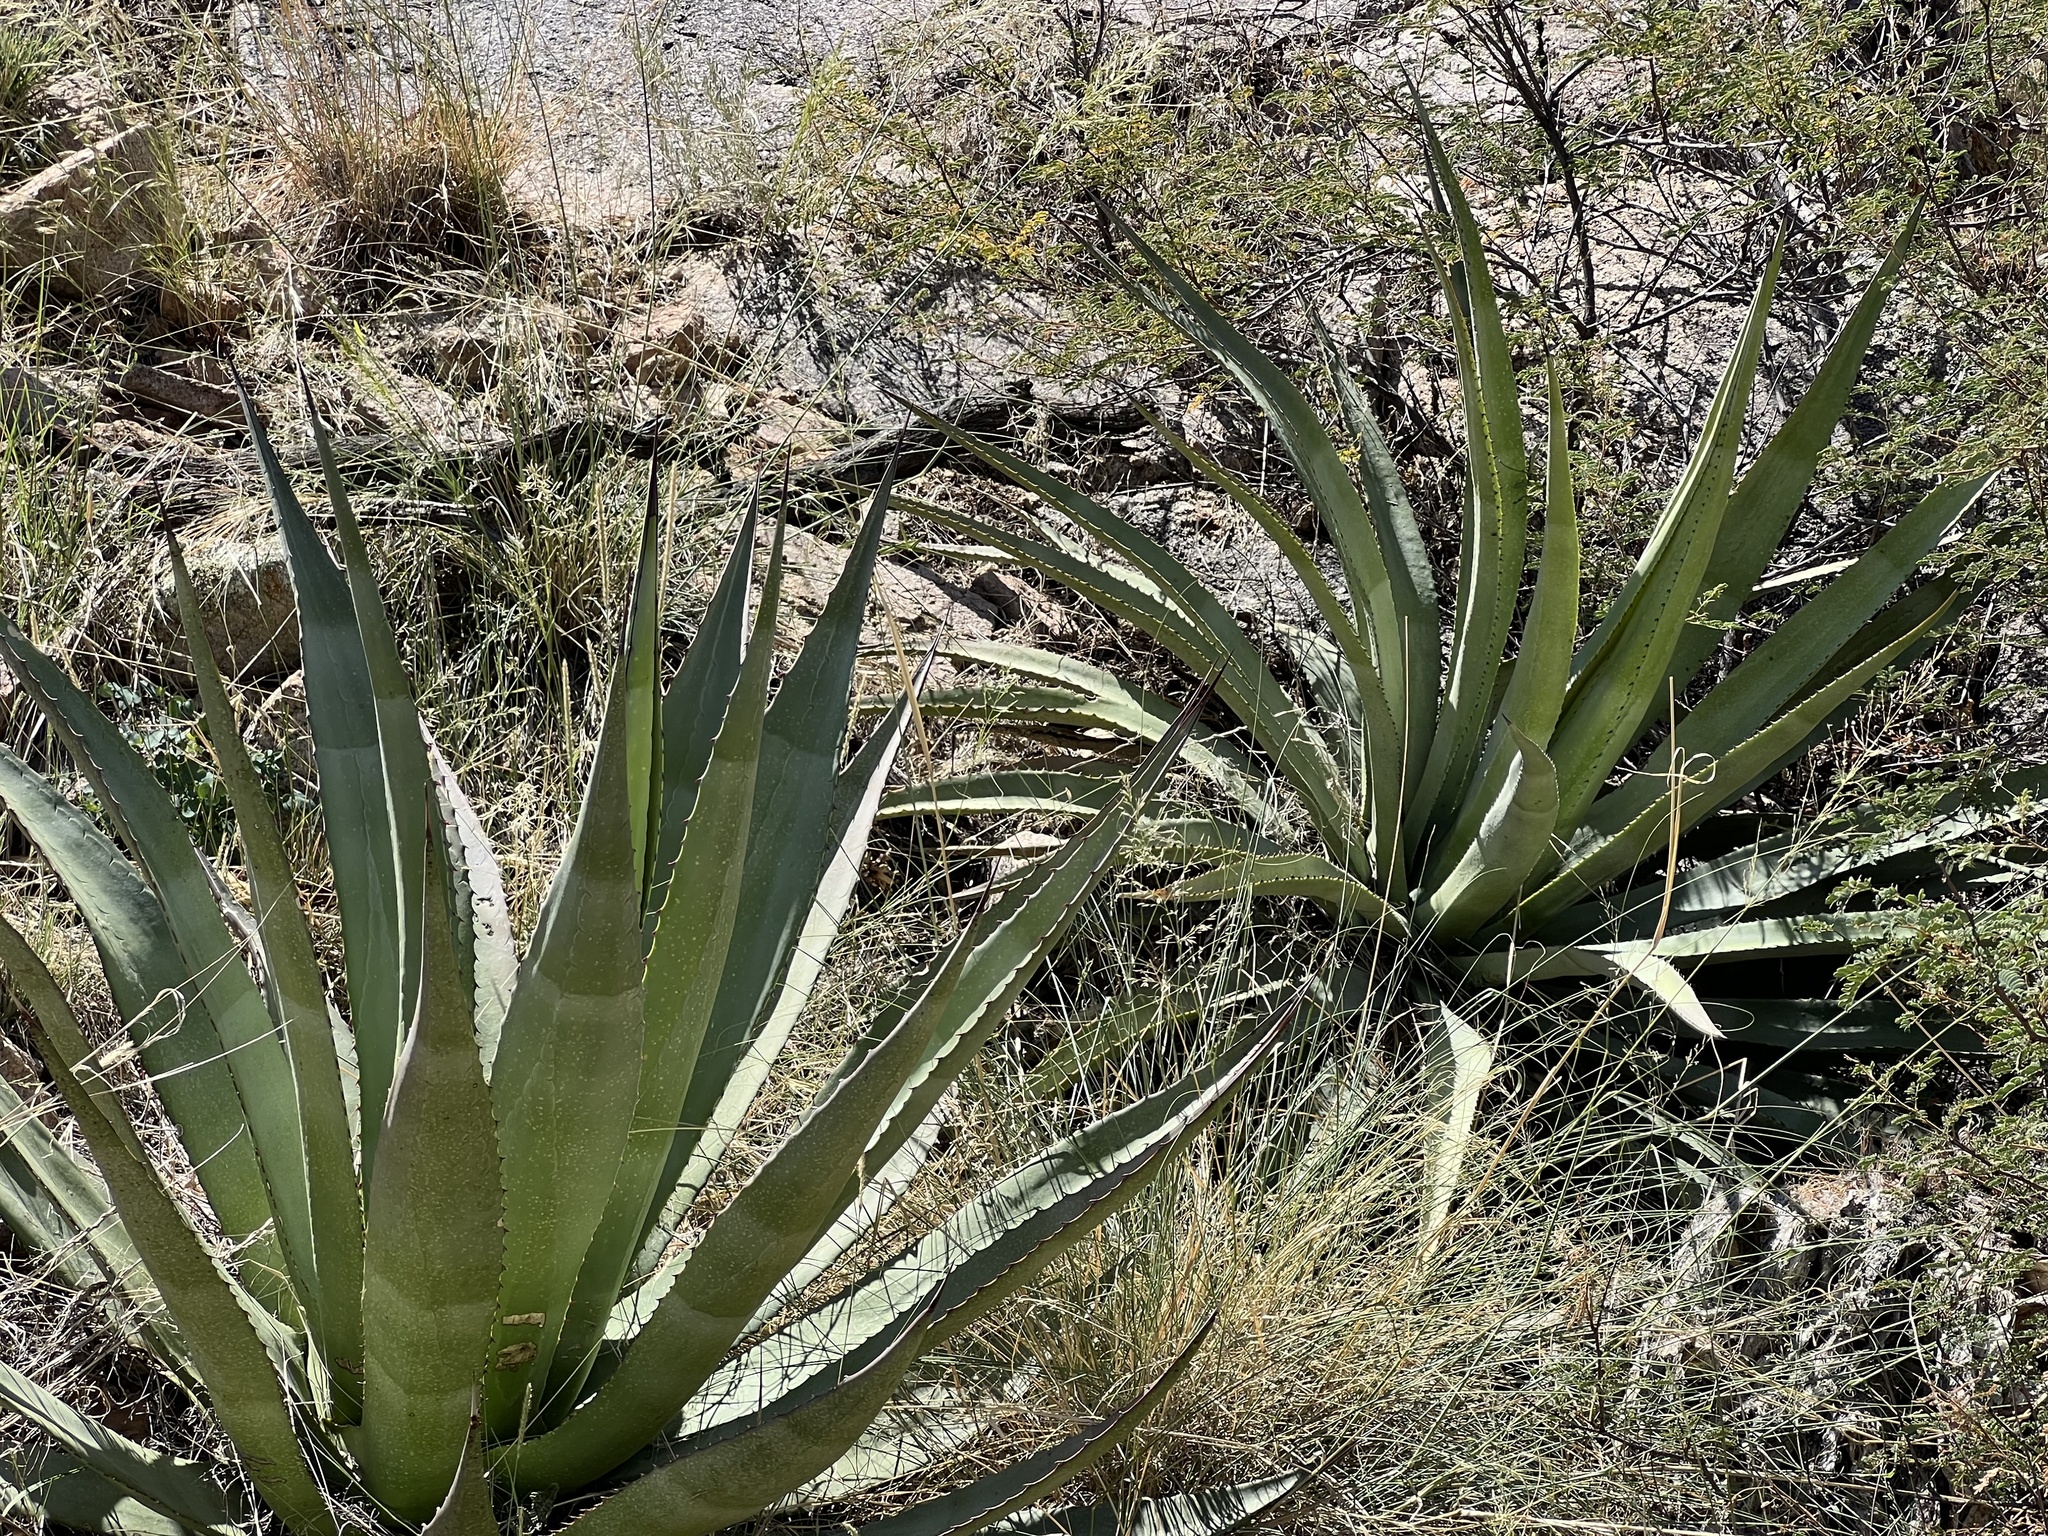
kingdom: Plantae
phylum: Tracheophyta
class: Liliopsida
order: Asparagales
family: Asparagaceae
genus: Agave
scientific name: Agave palmeri
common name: Palmer agave
